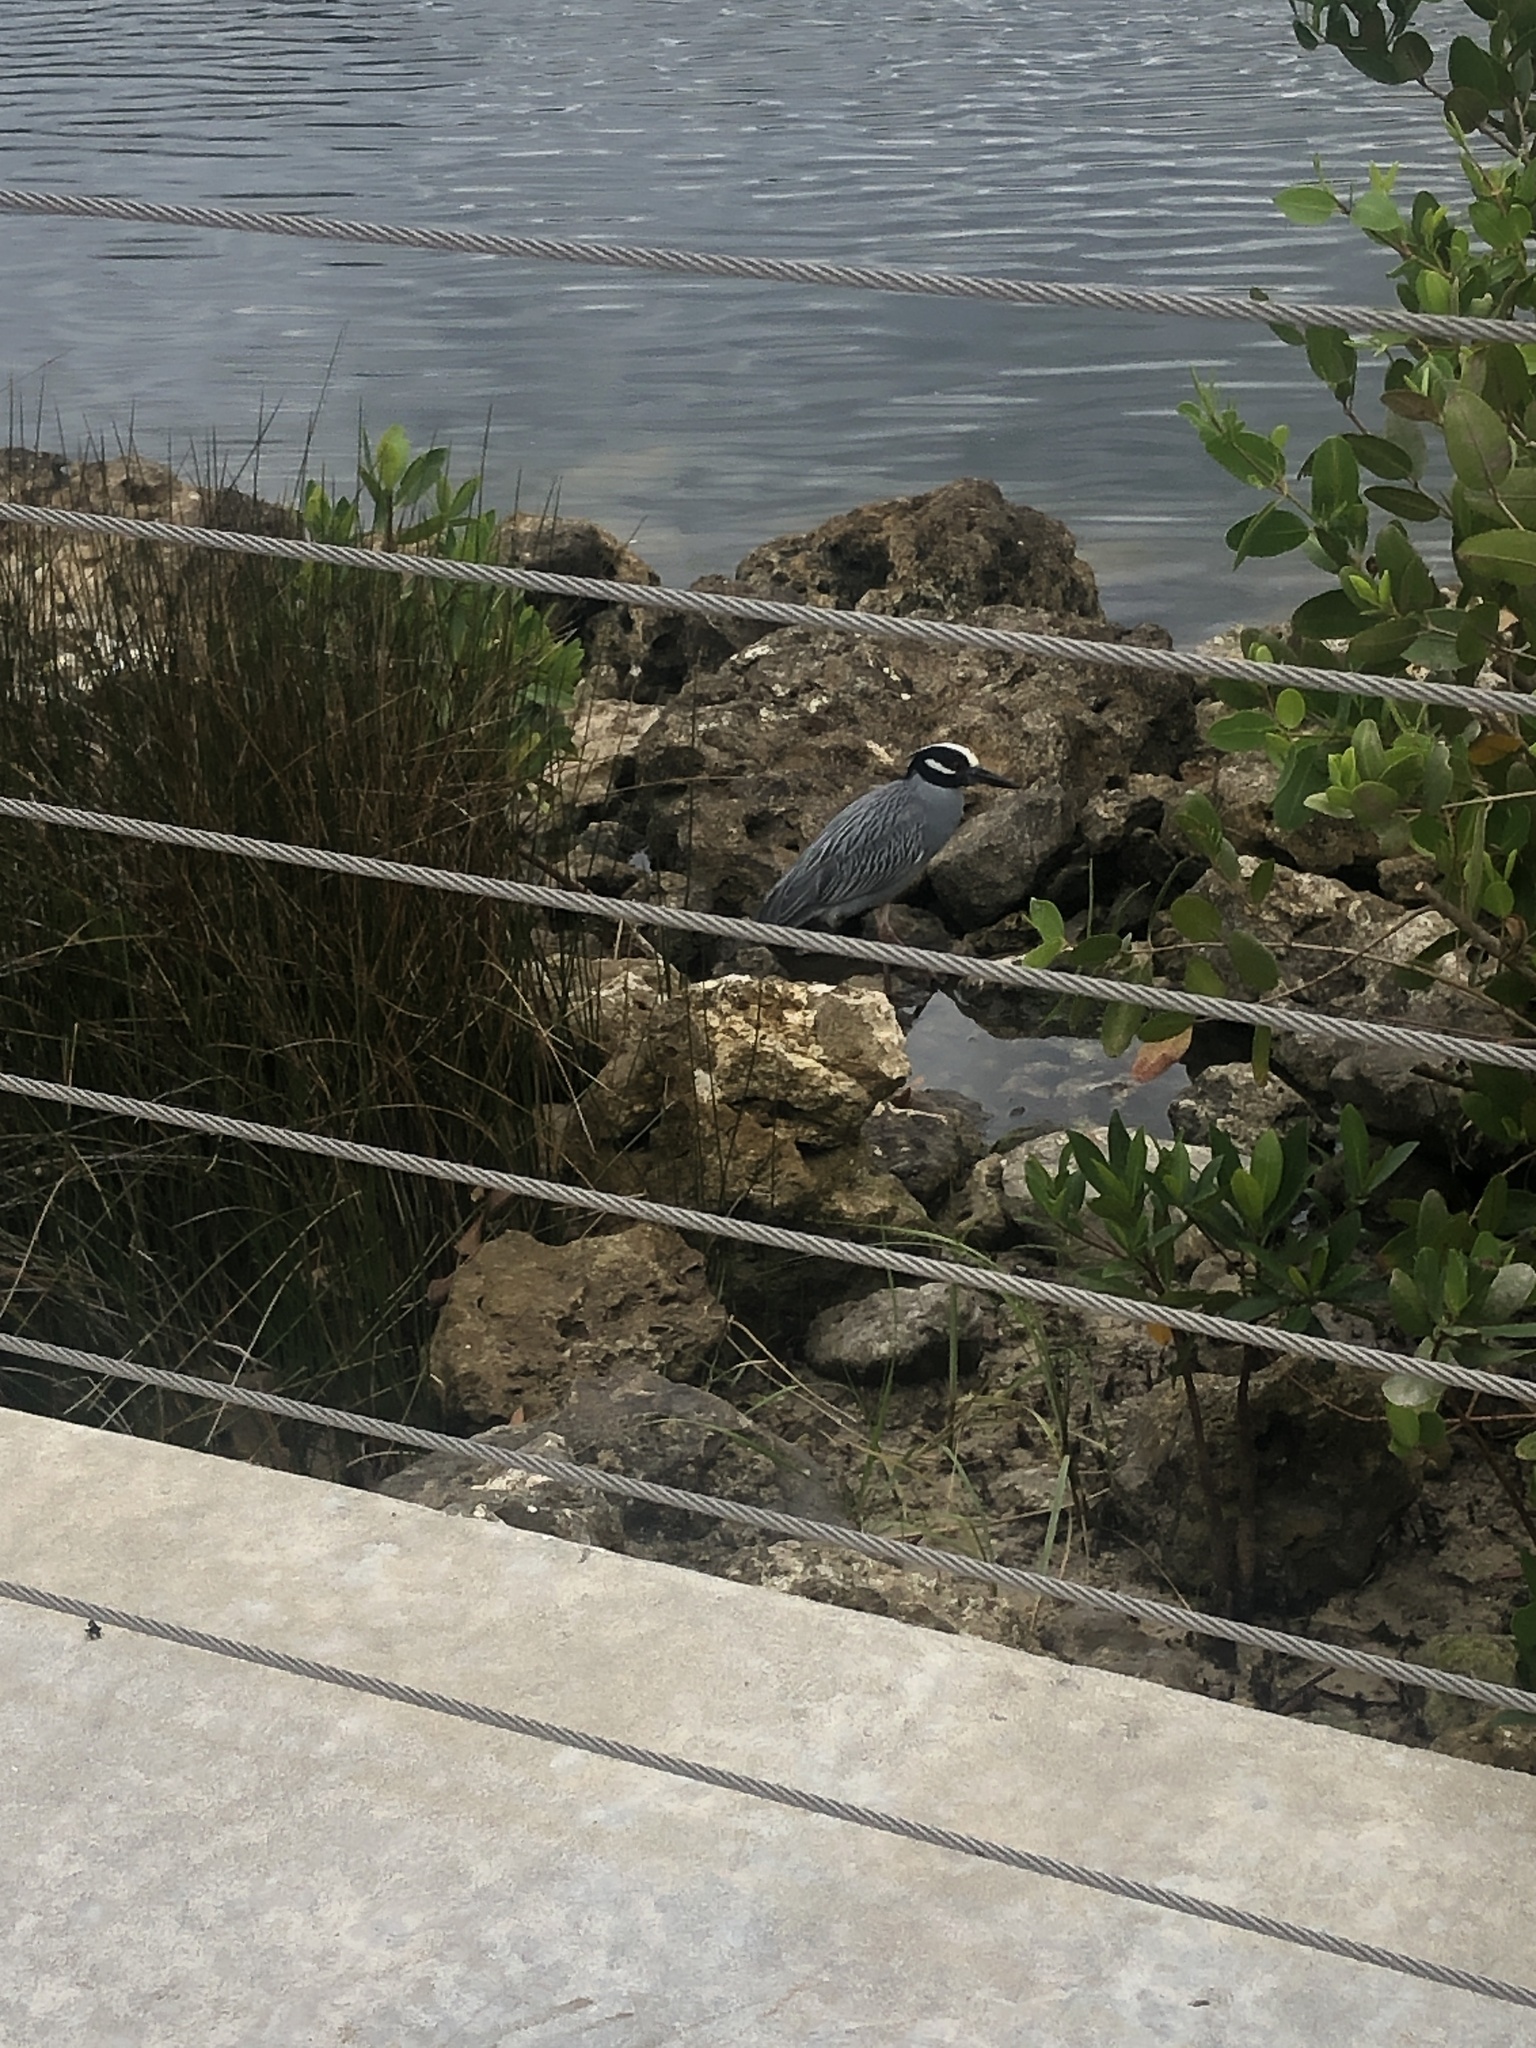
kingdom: Animalia
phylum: Chordata
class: Aves
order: Pelecaniformes
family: Ardeidae
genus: Nyctanassa
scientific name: Nyctanassa violacea
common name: Yellow-crowned night heron
